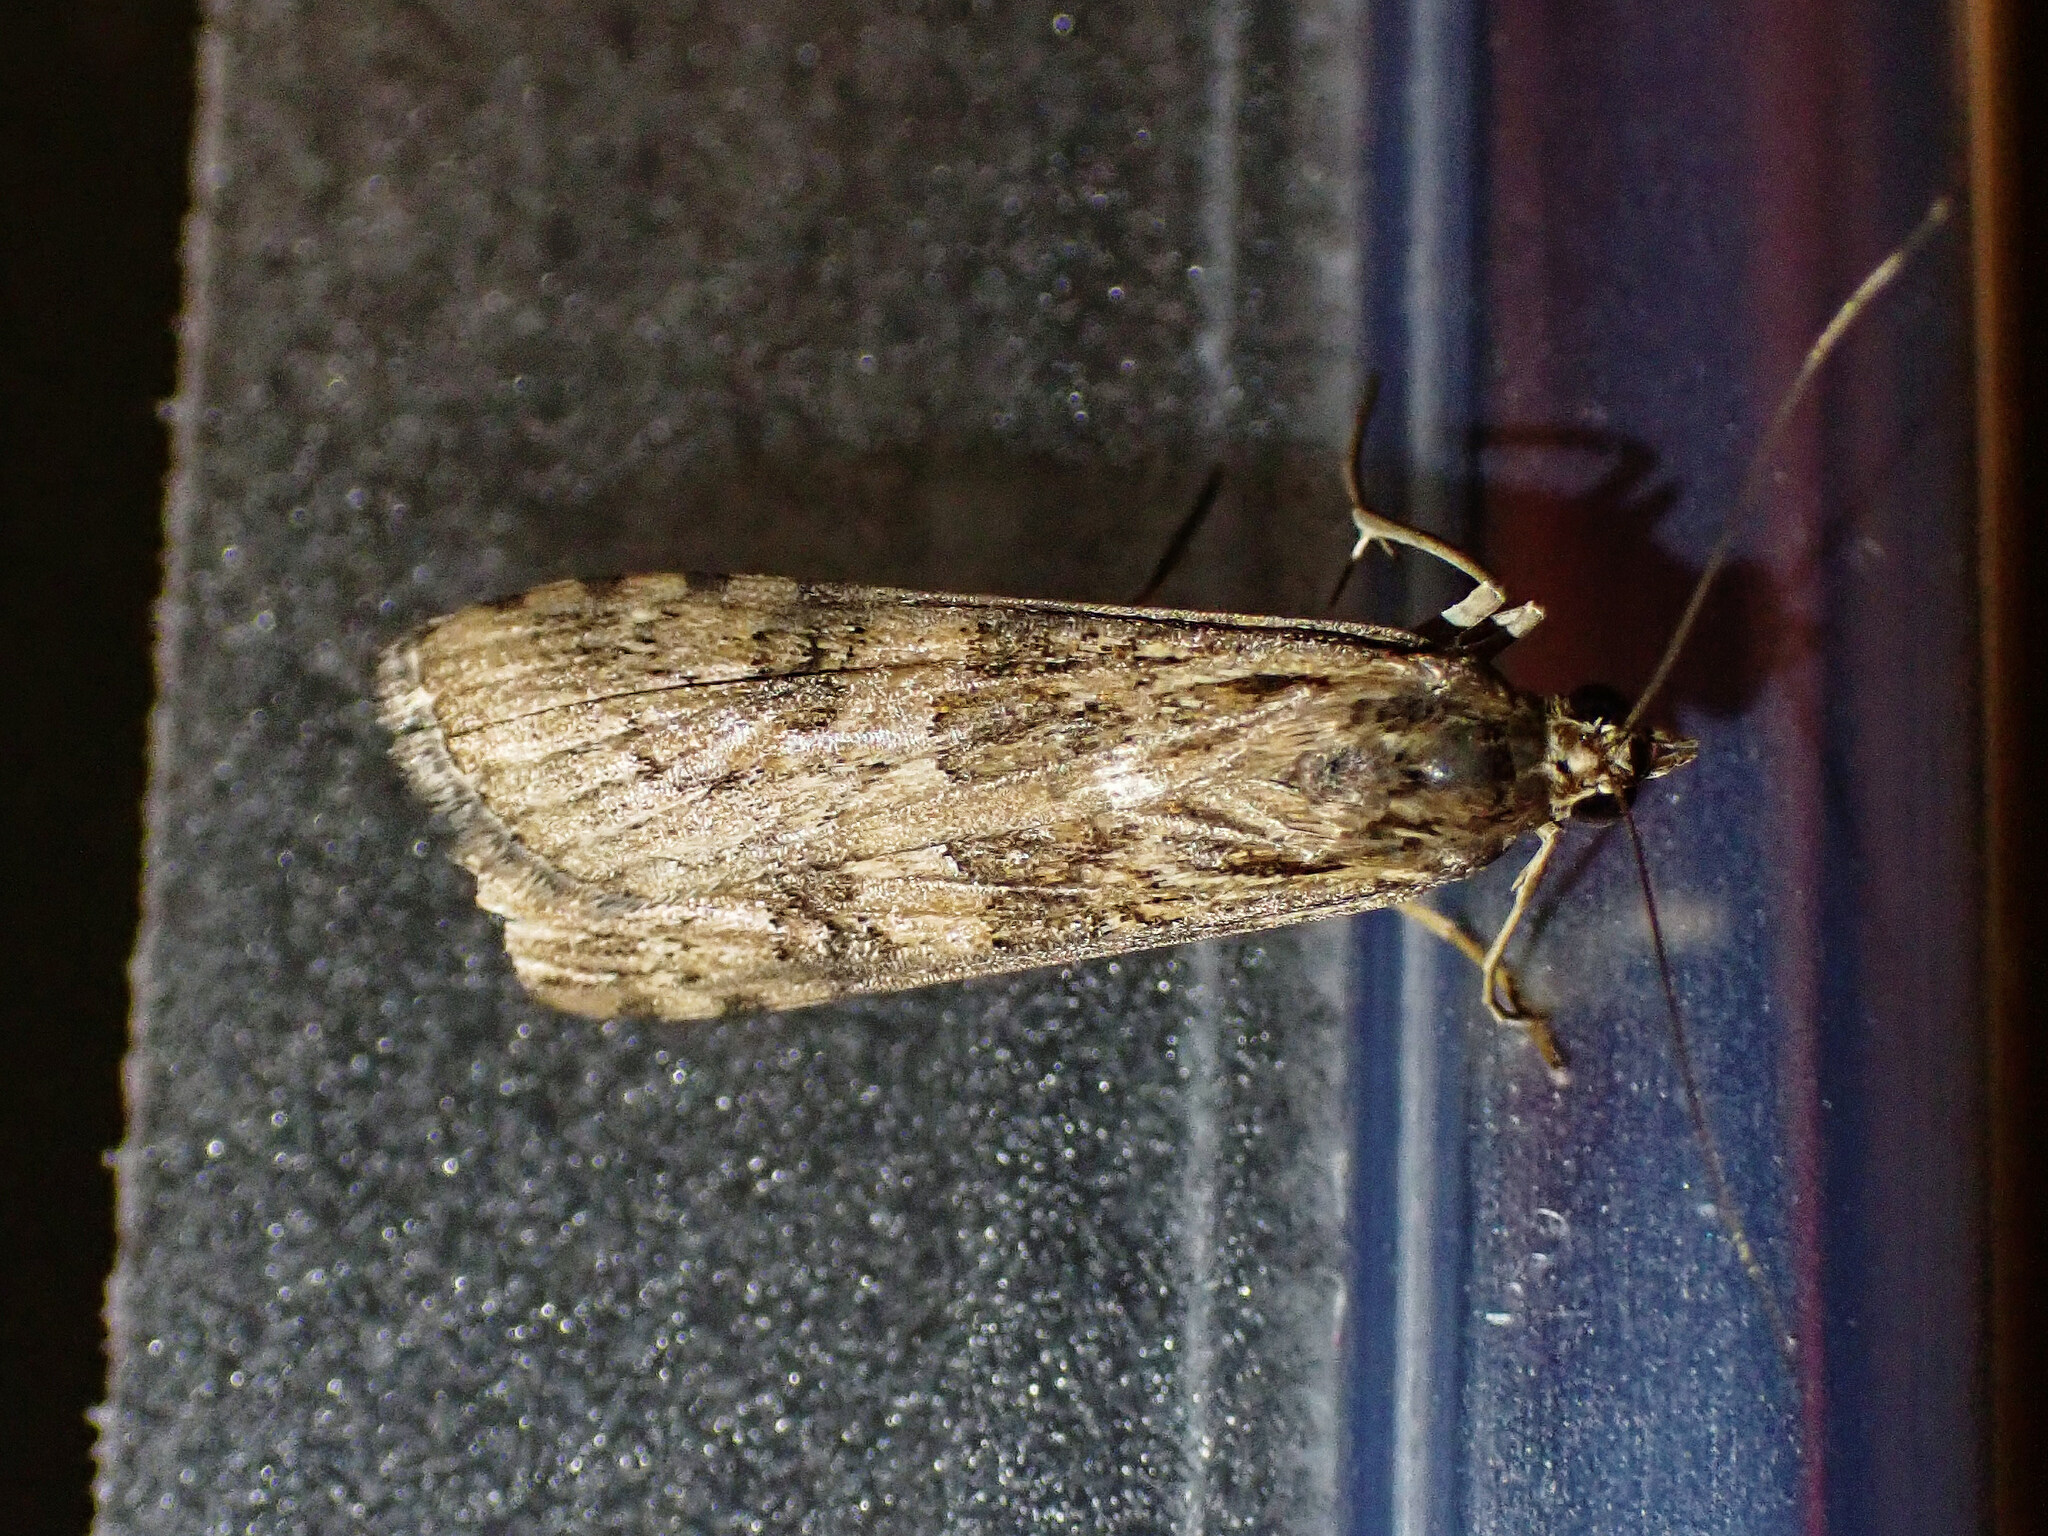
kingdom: Animalia
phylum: Arthropoda
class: Insecta
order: Lepidoptera
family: Crambidae
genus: Nomophila
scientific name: Nomophila noctuella
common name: Rush veneer
